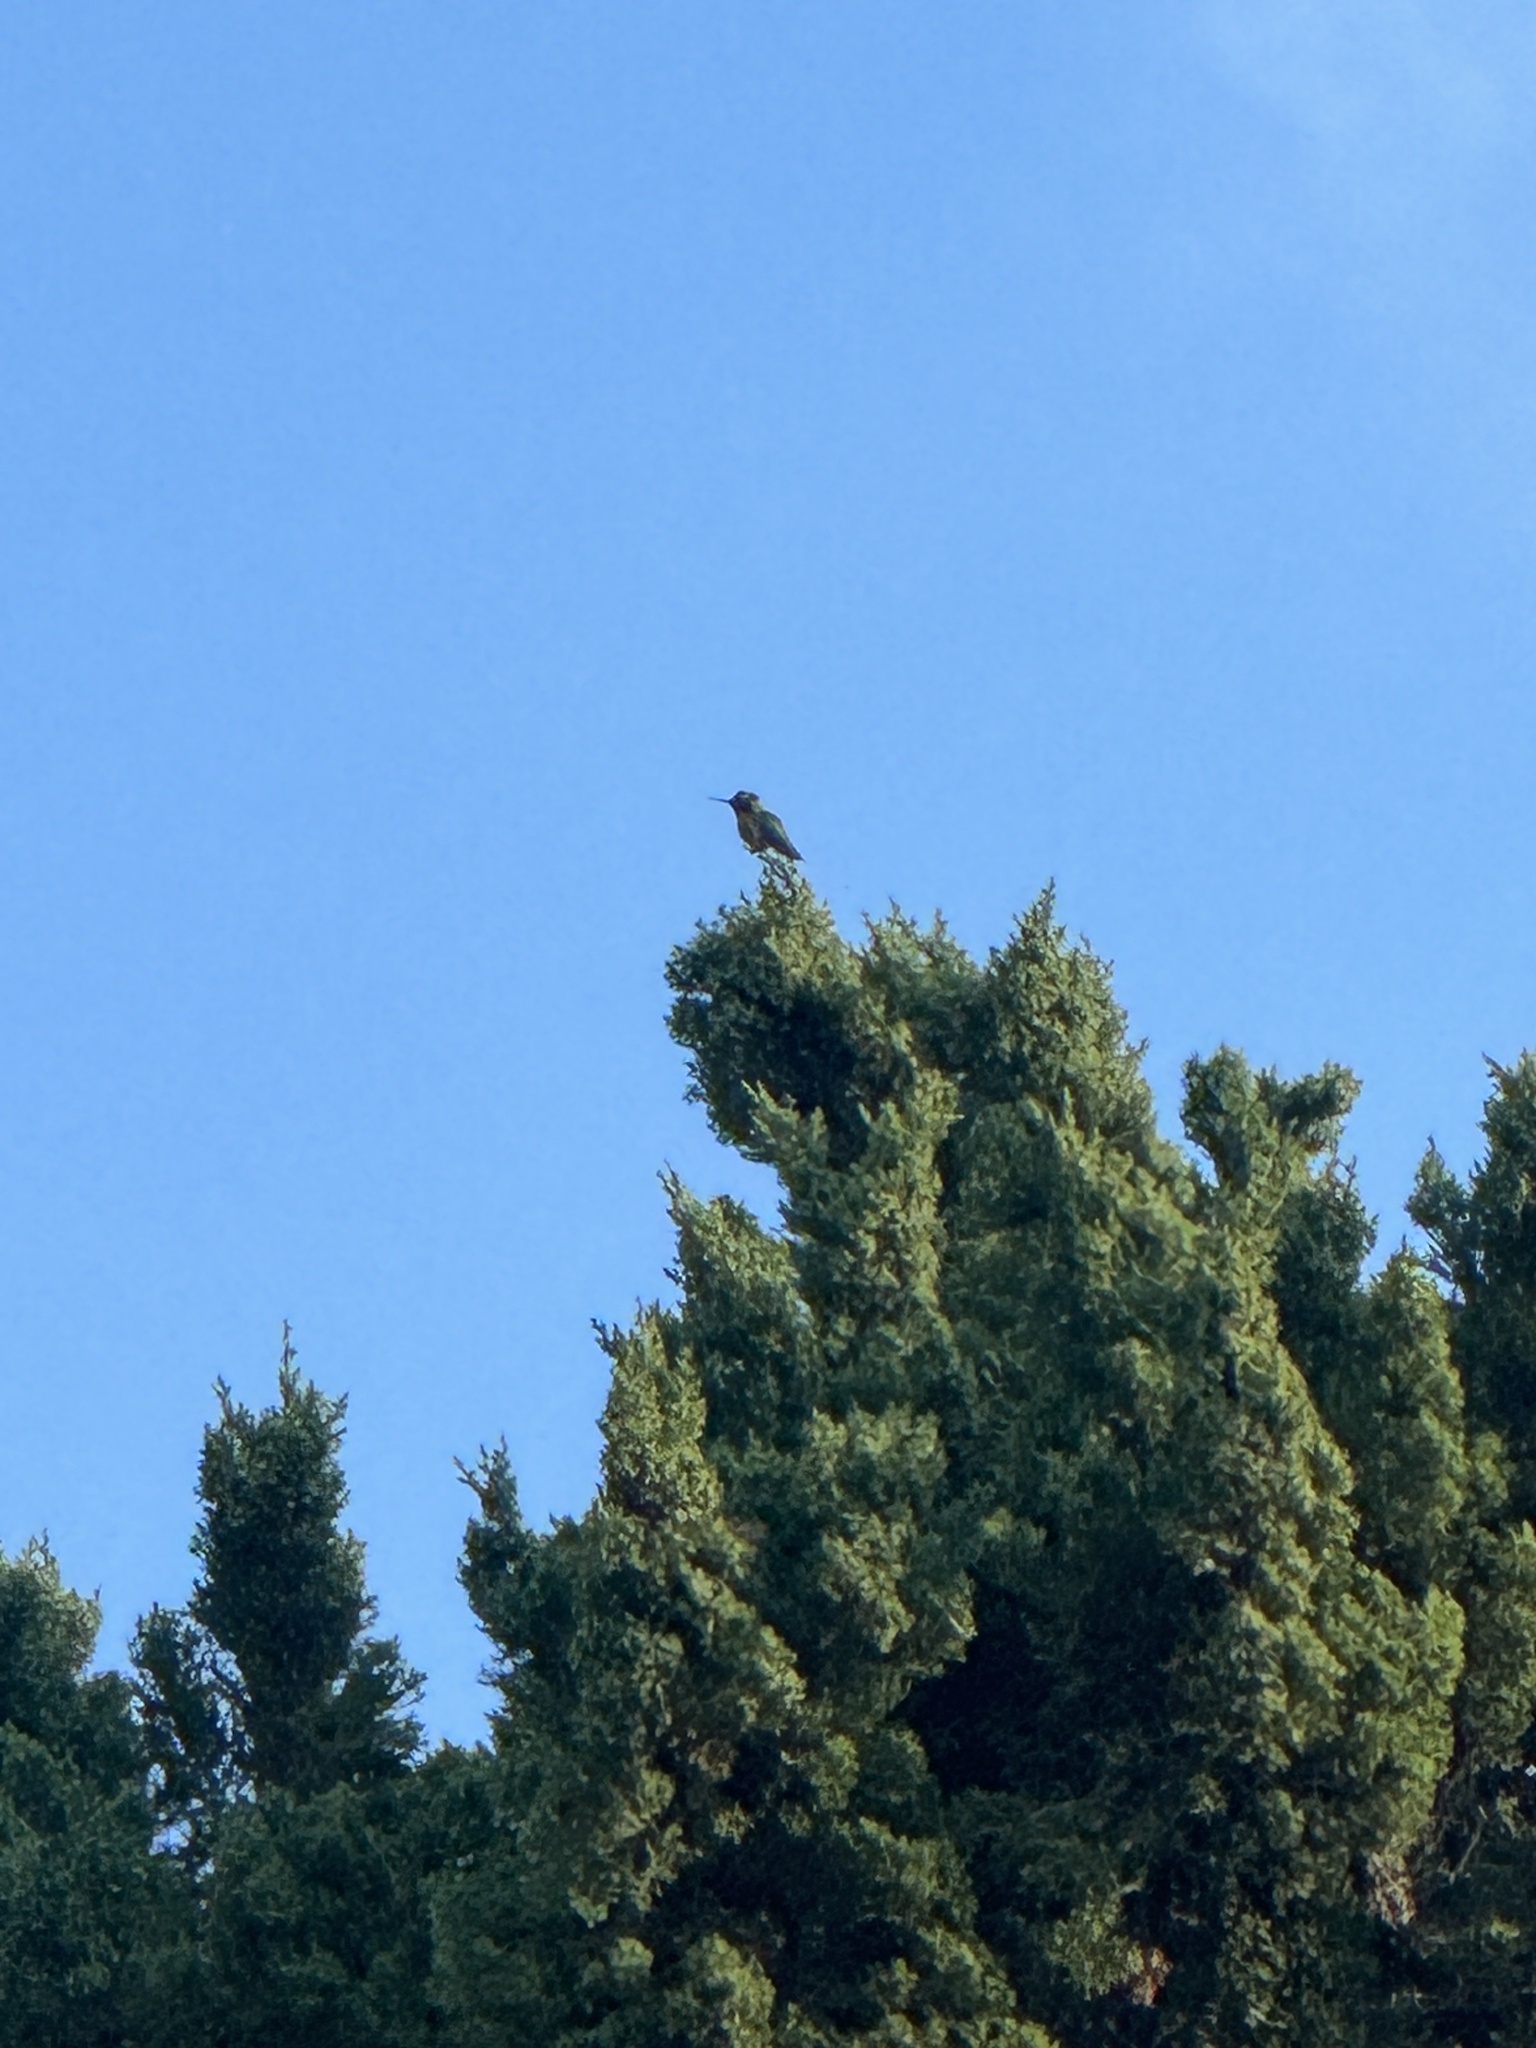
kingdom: Animalia
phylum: Chordata
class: Aves
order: Apodiformes
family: Trochilidae
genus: Calypte
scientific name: Calypte anna
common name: Anna's hummingbird
